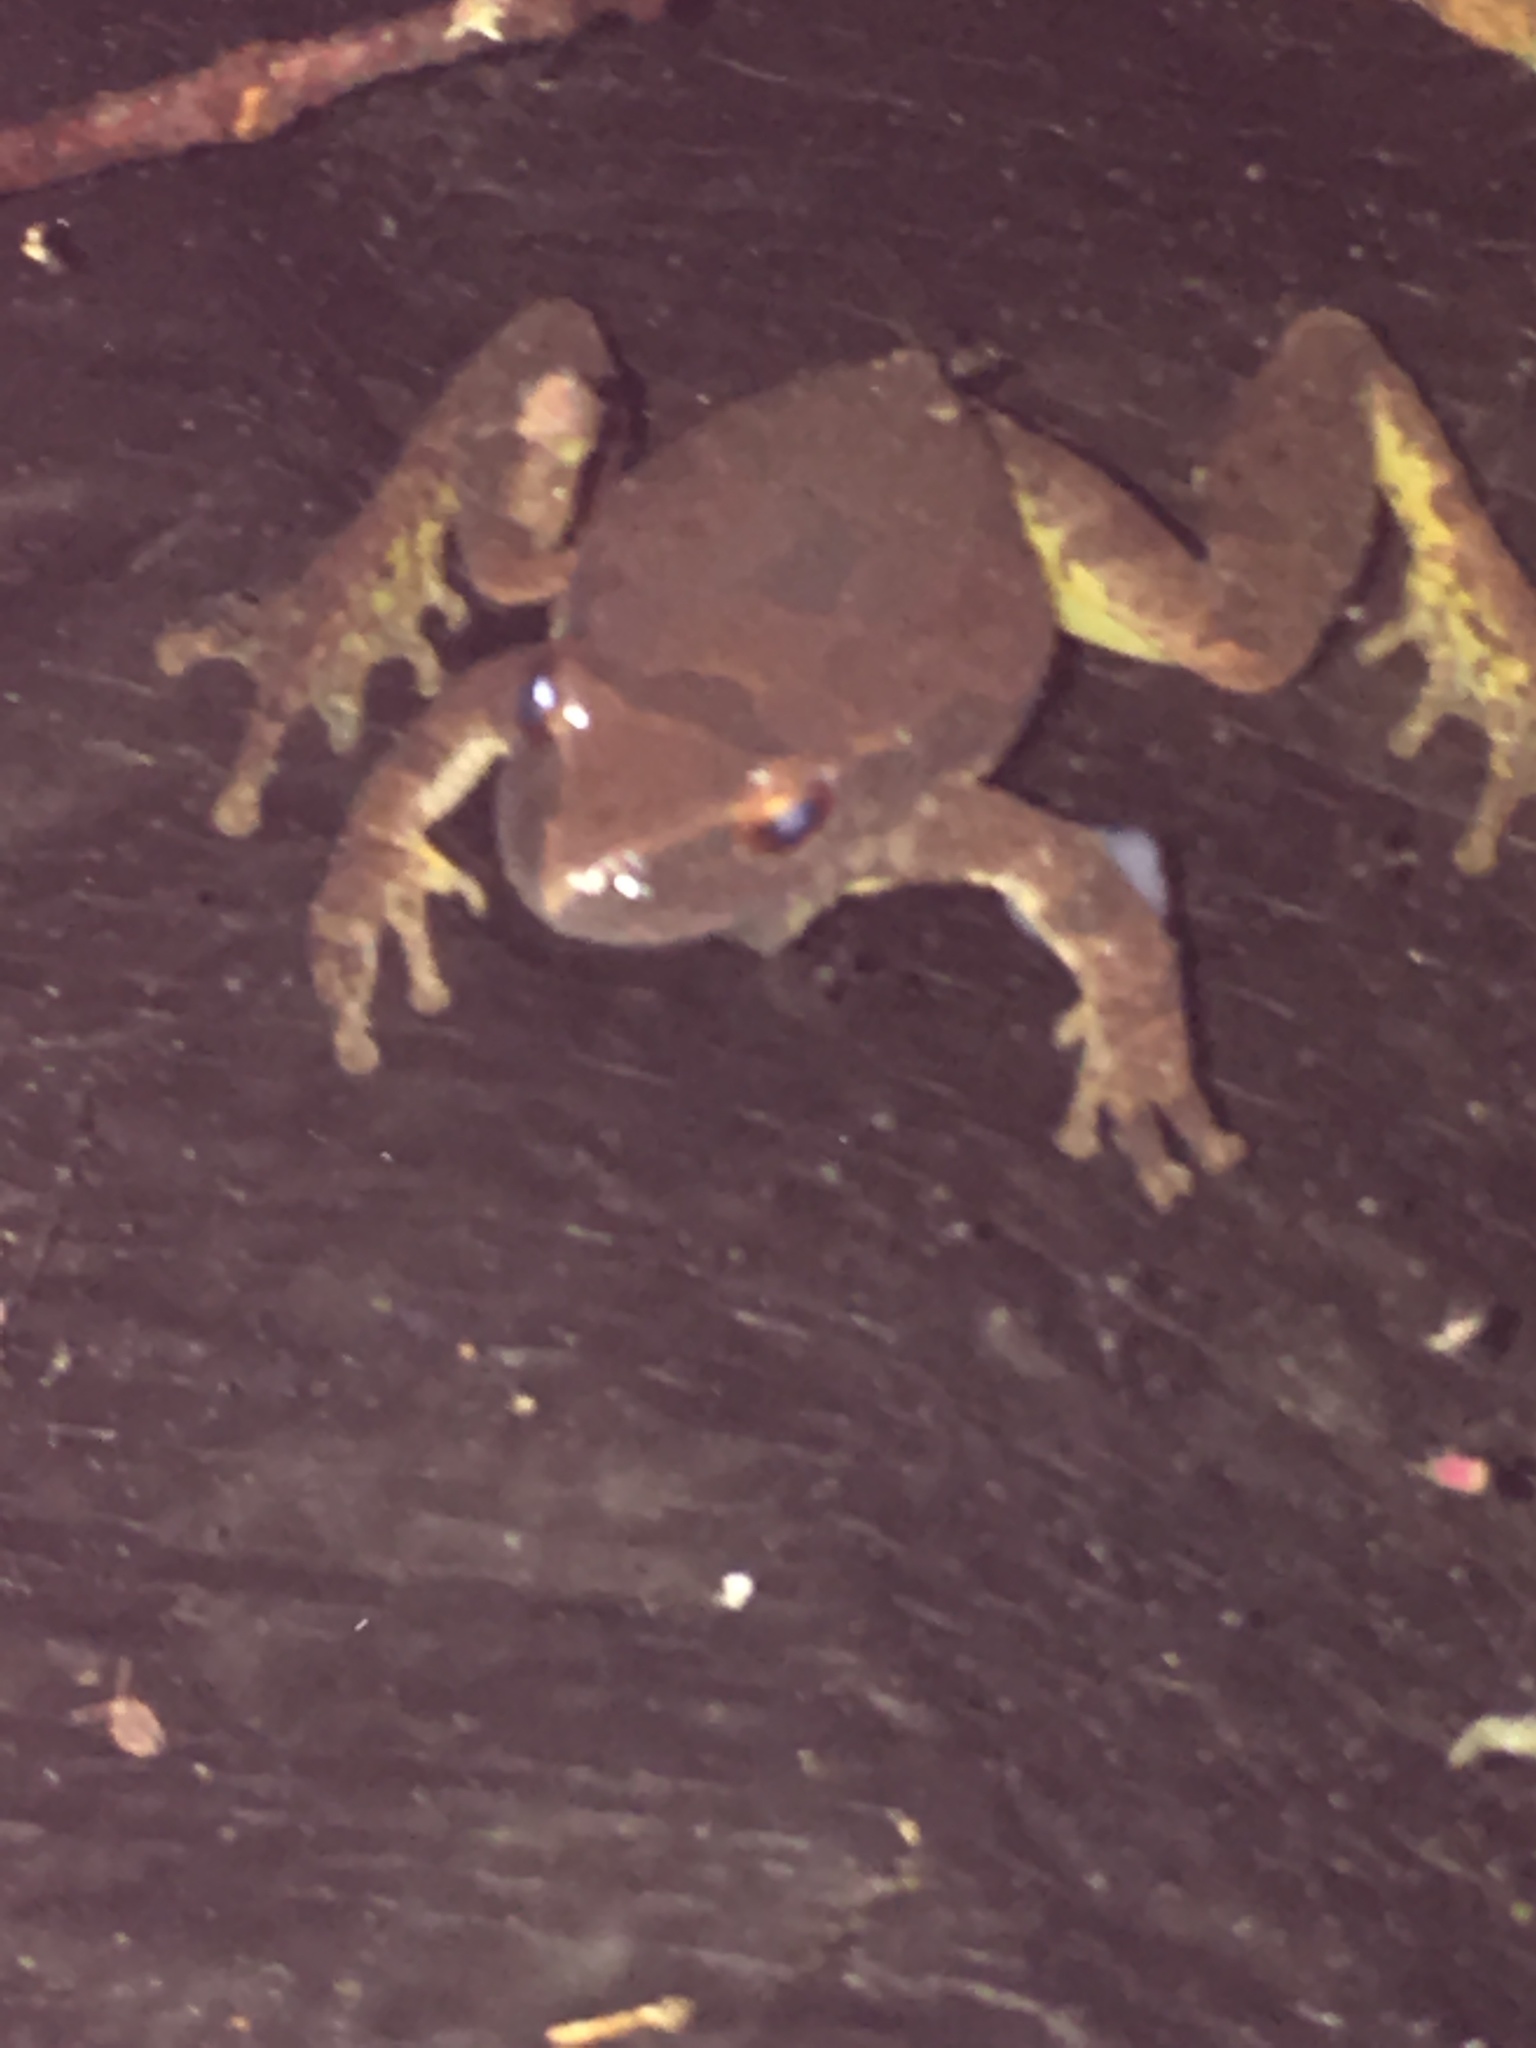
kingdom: Animalia
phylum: Chordata
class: Amphibia
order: Anura
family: Hylidae
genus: Pseudacris
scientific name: Pseudacris crucifer
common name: Spring peeper
